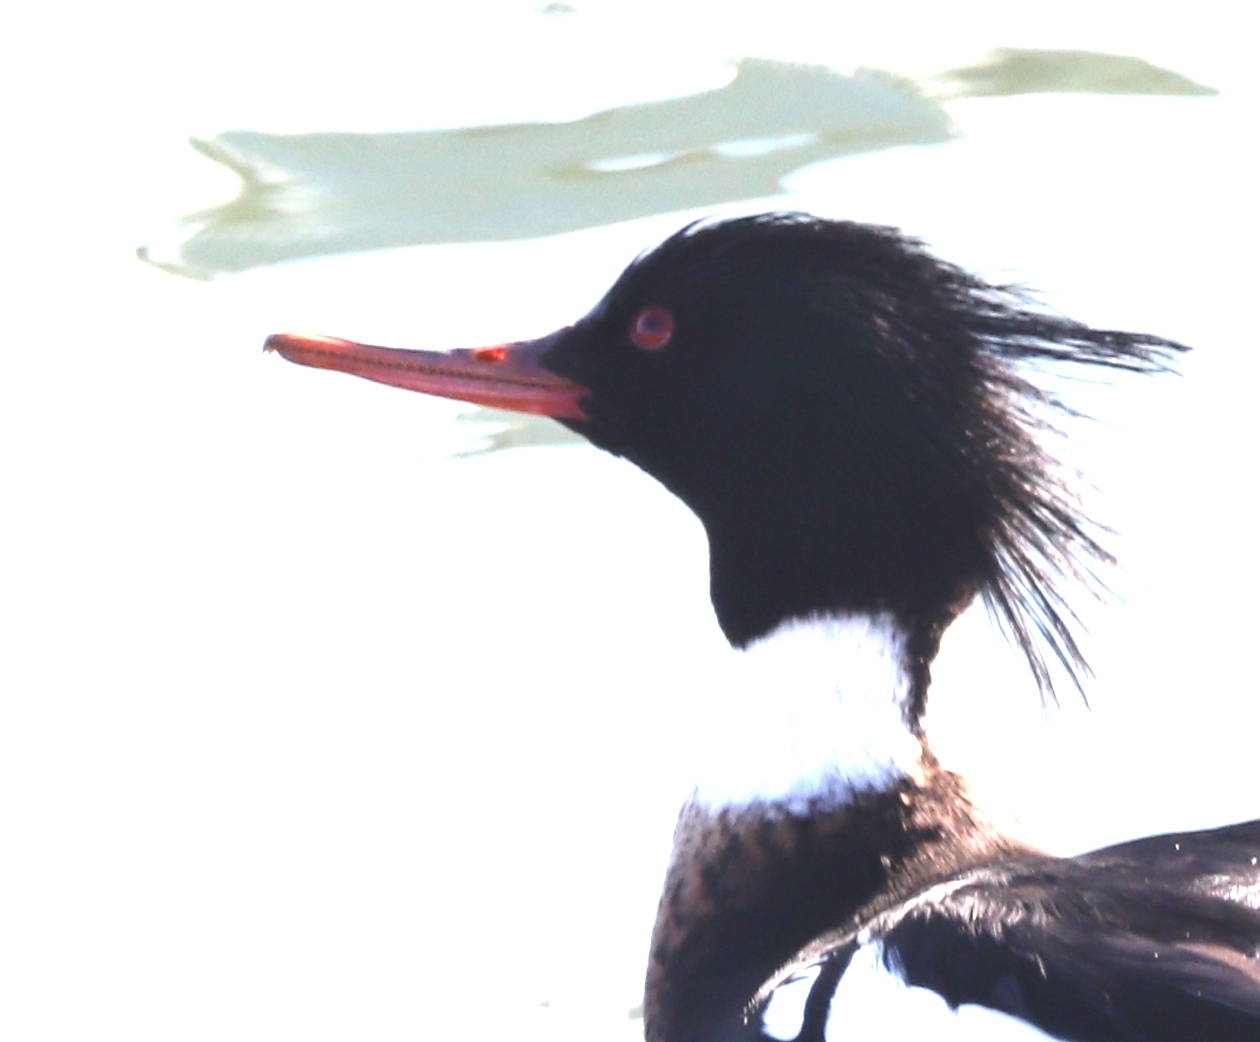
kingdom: Animalia
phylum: Chordata
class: Aves
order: Anseriformes
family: Anatidae
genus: Mergus
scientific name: Mergus serrator
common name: Red-breasted merganser
